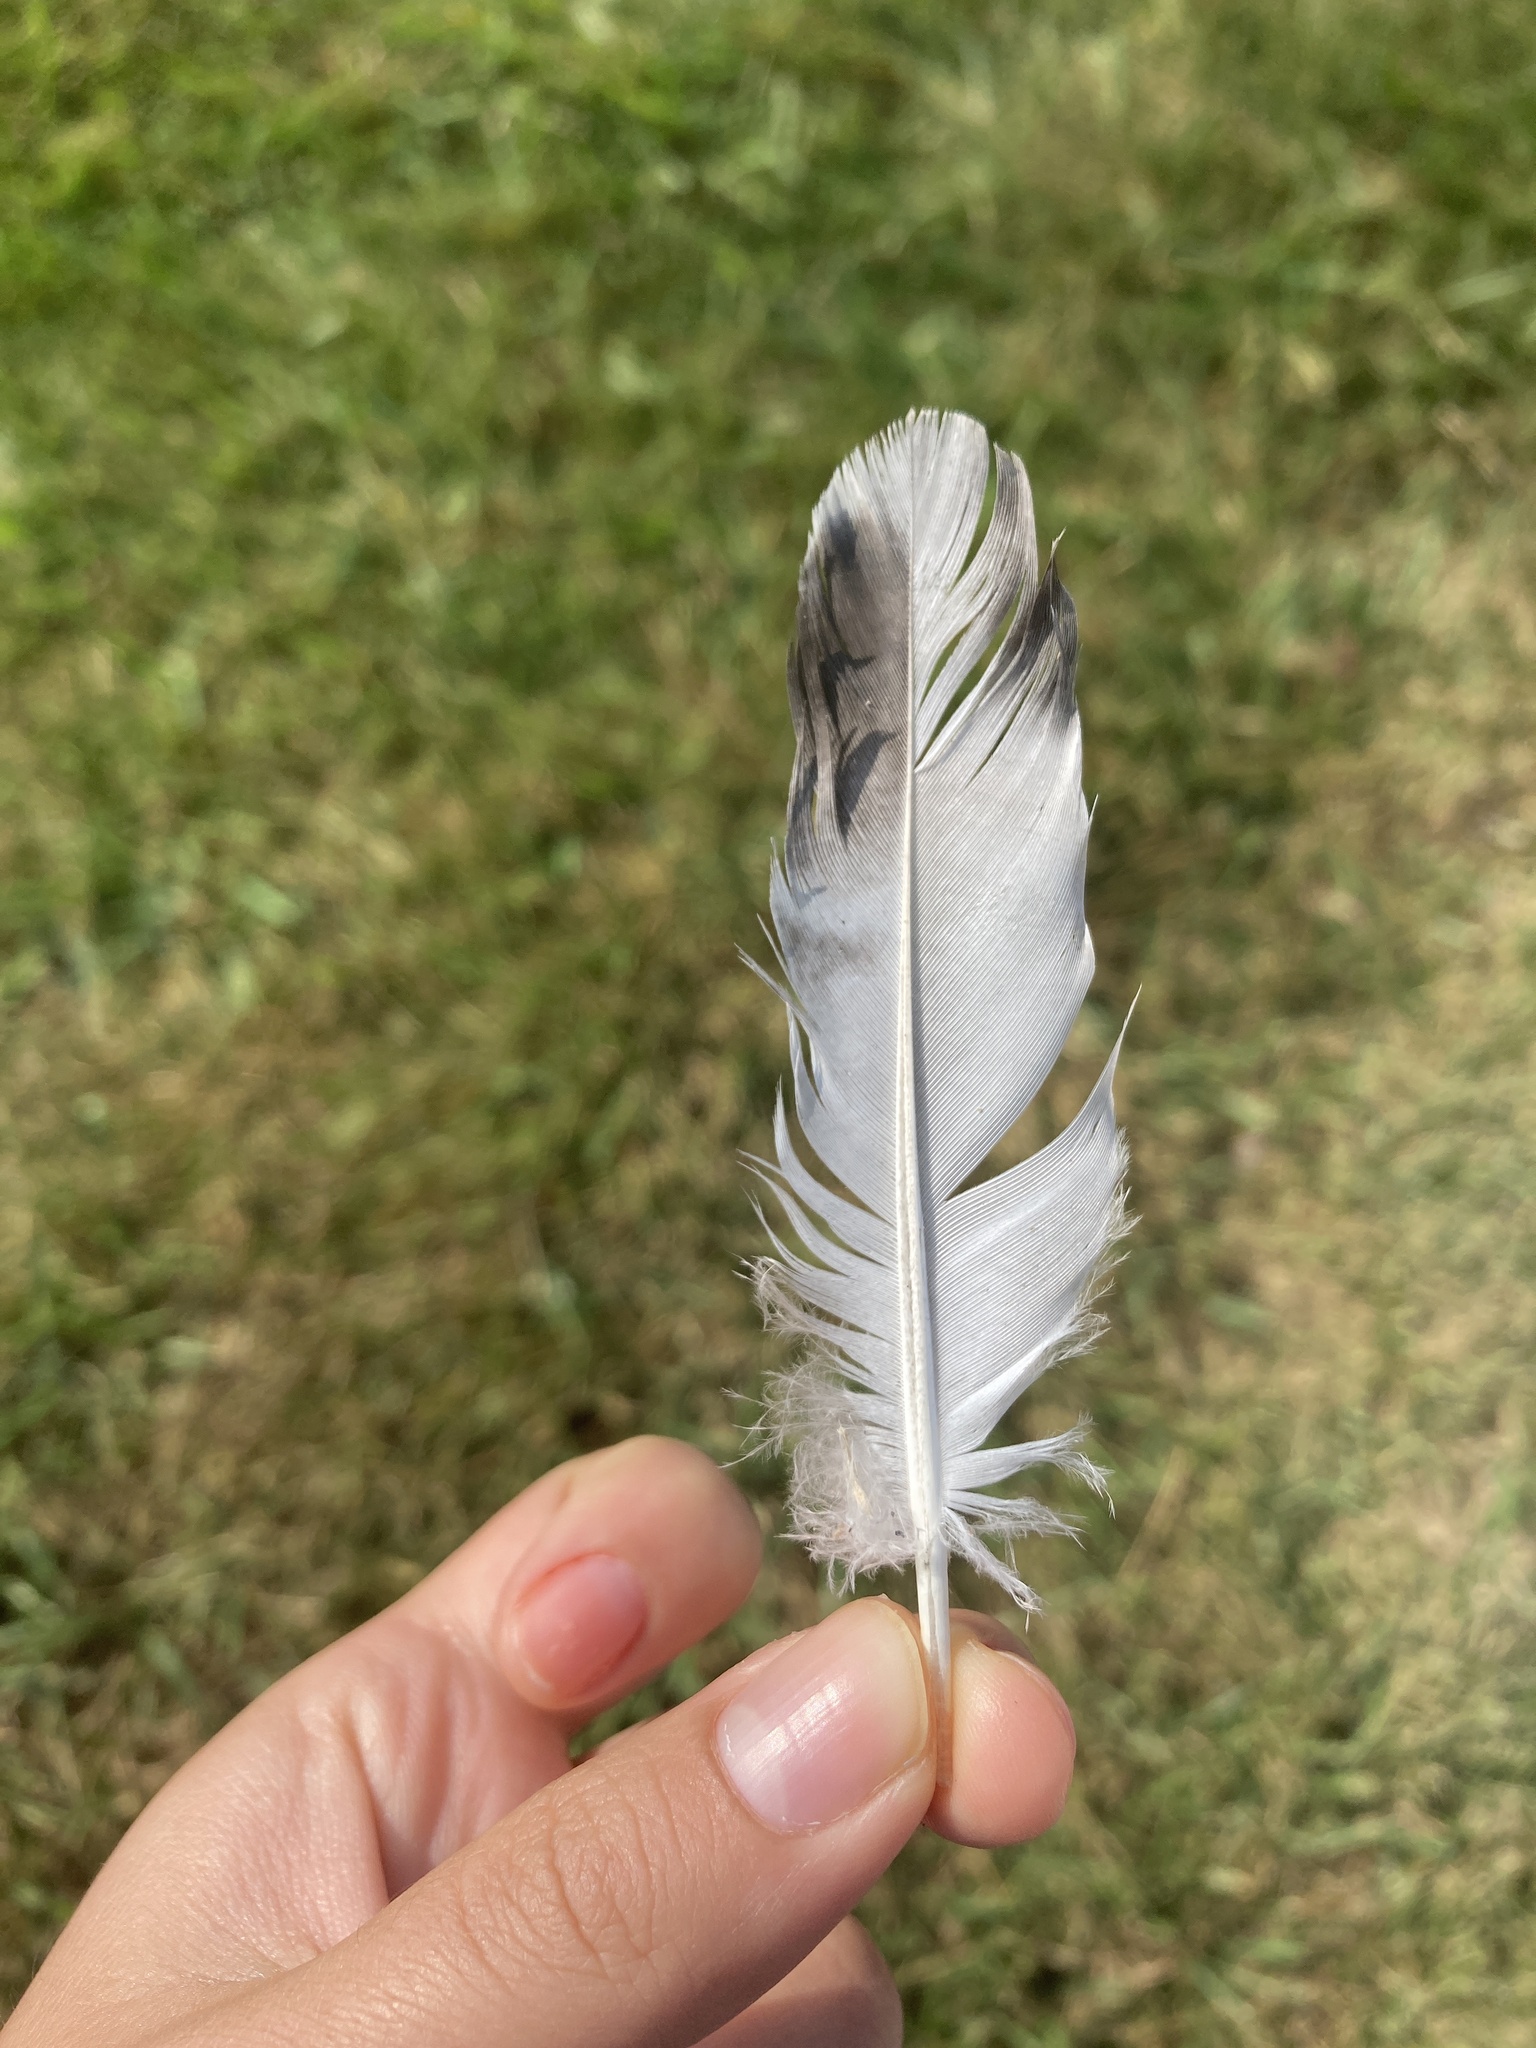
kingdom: Animalia
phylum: Chordata
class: Aves
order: Columbiformes
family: Columbidae
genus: Columba
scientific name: Columba livia
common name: Rock pigeon
